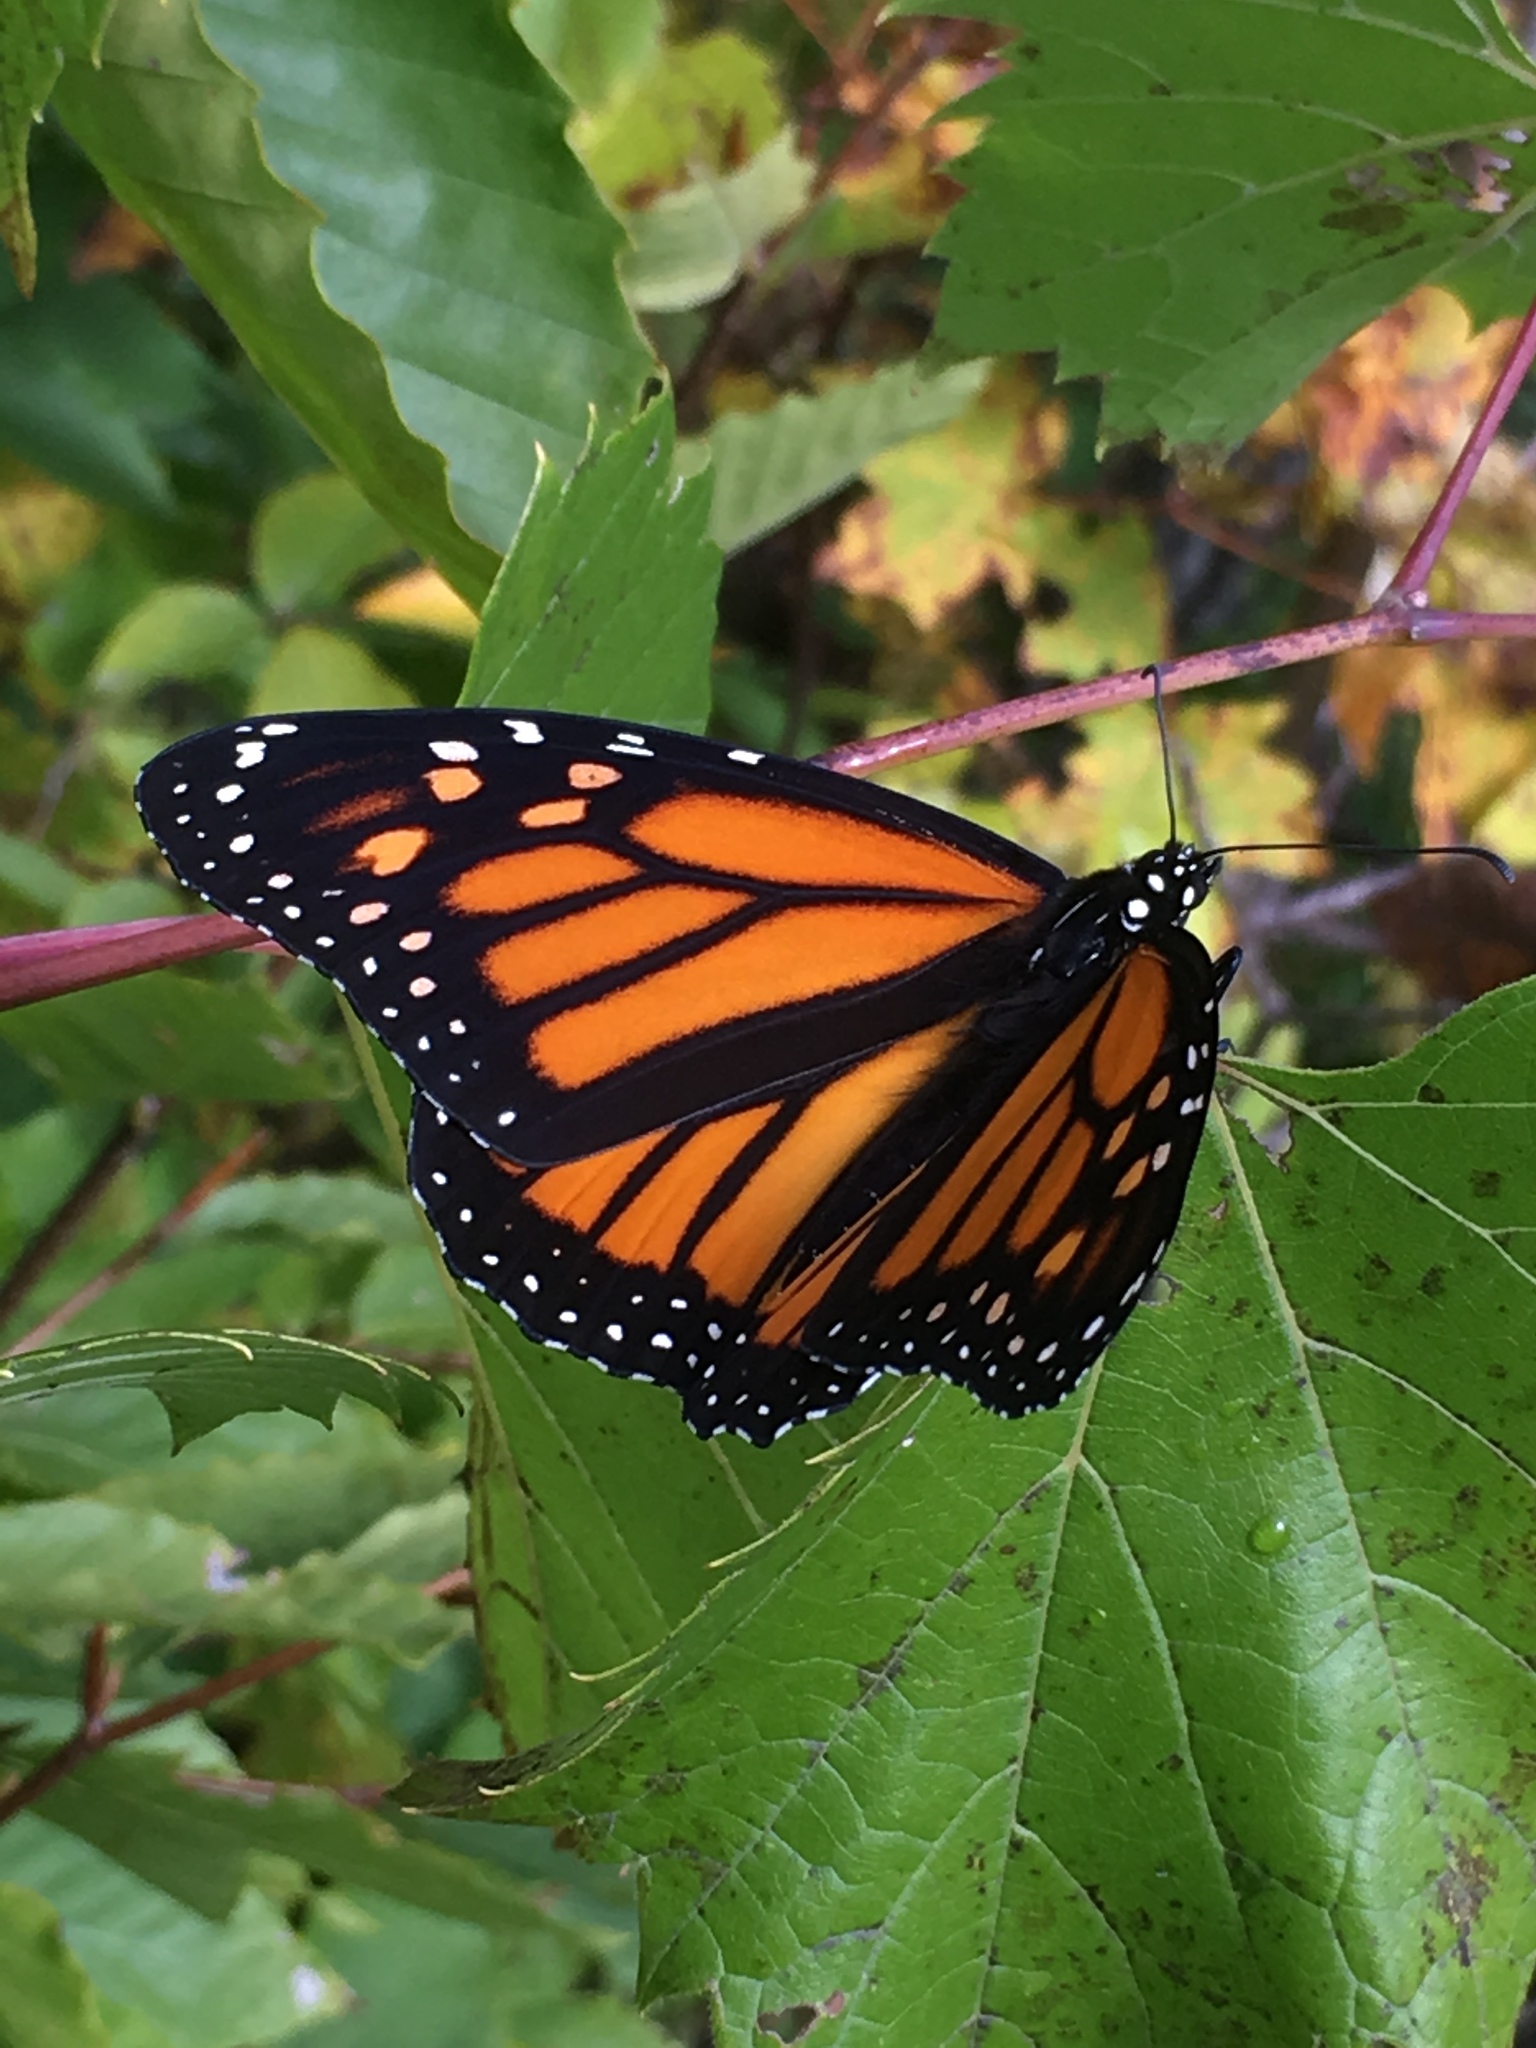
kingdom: Animalia
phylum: Arthropoda
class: Insecta
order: Lepidoptera
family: Nymphalidae
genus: Danaus
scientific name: Danaus plexippus
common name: Monarch
